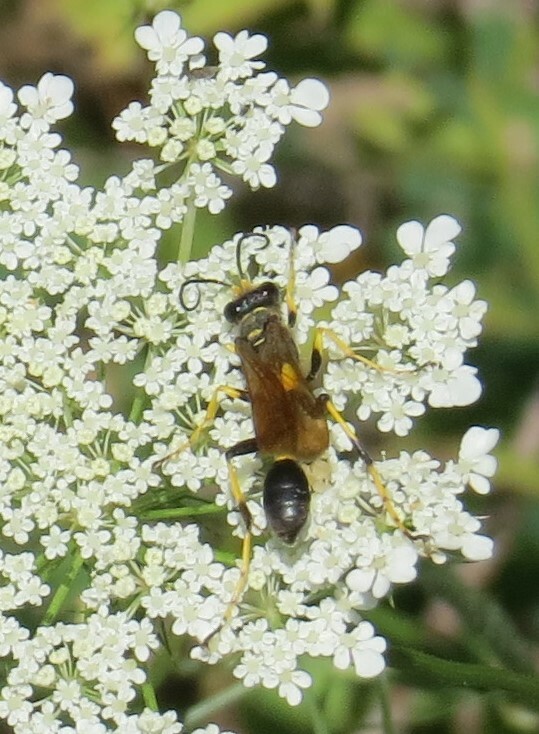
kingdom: Animalia
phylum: Arthropoda
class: Insecta
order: Hymenoptera
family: Sphecidae
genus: Sceliphron
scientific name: Sceliphron caementarium
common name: Mud dauber
